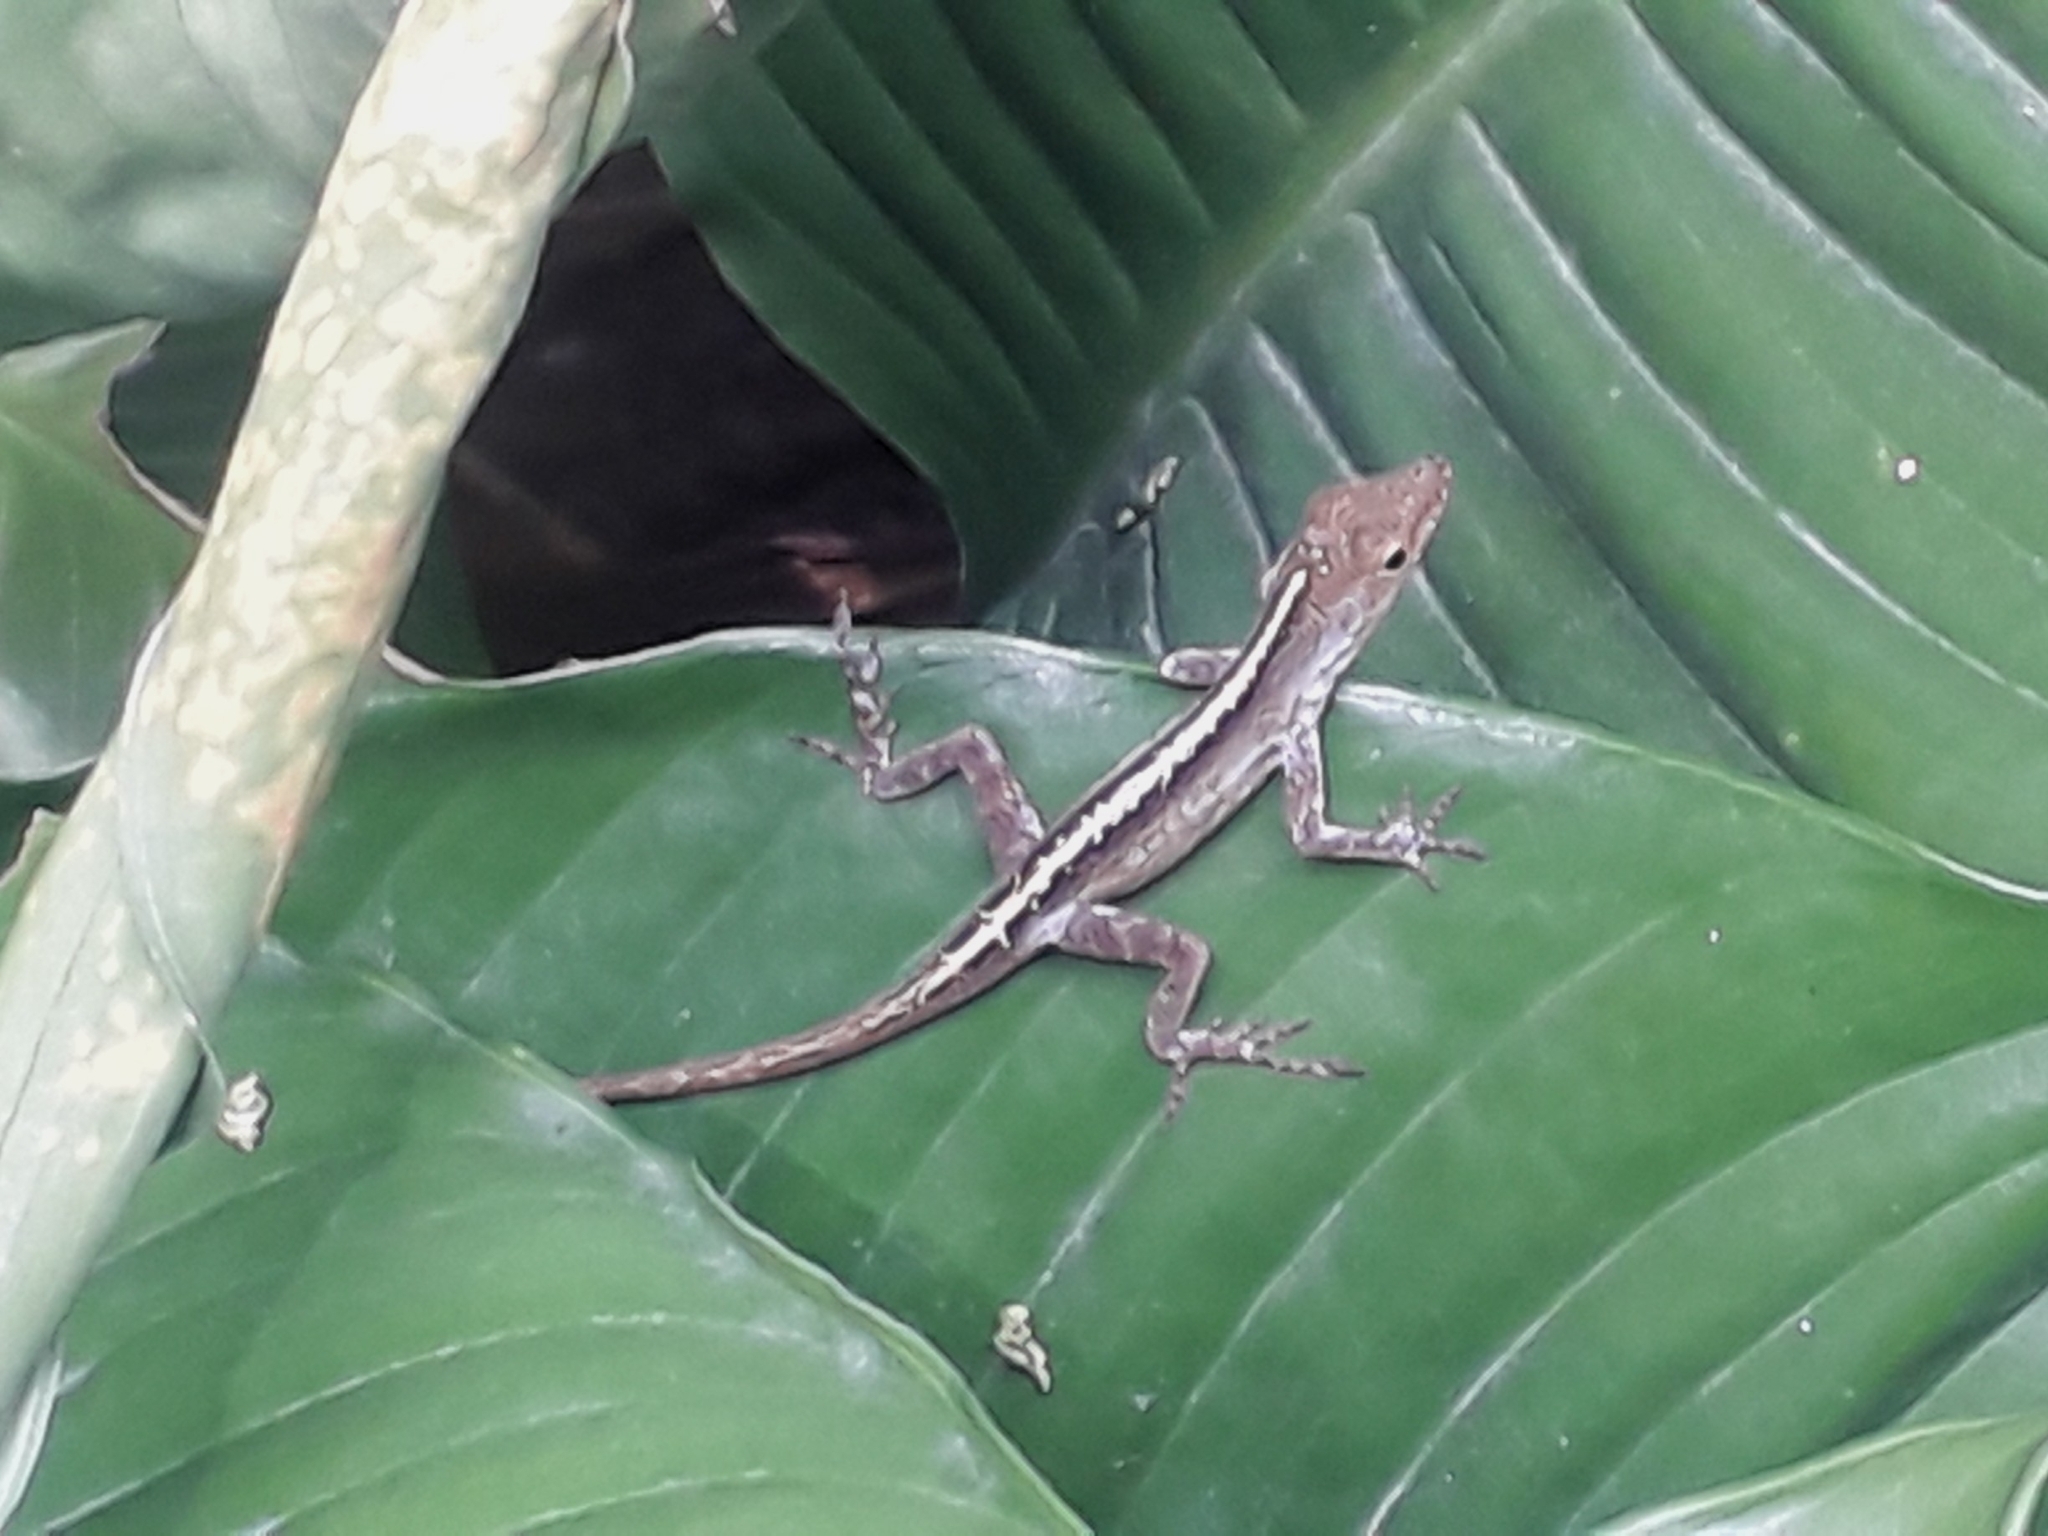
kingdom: Animalia
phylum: Chordata
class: Squamata
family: Dactyloidae
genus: Anolis
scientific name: Anolis marmoratus
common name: Guadeloupe anole
